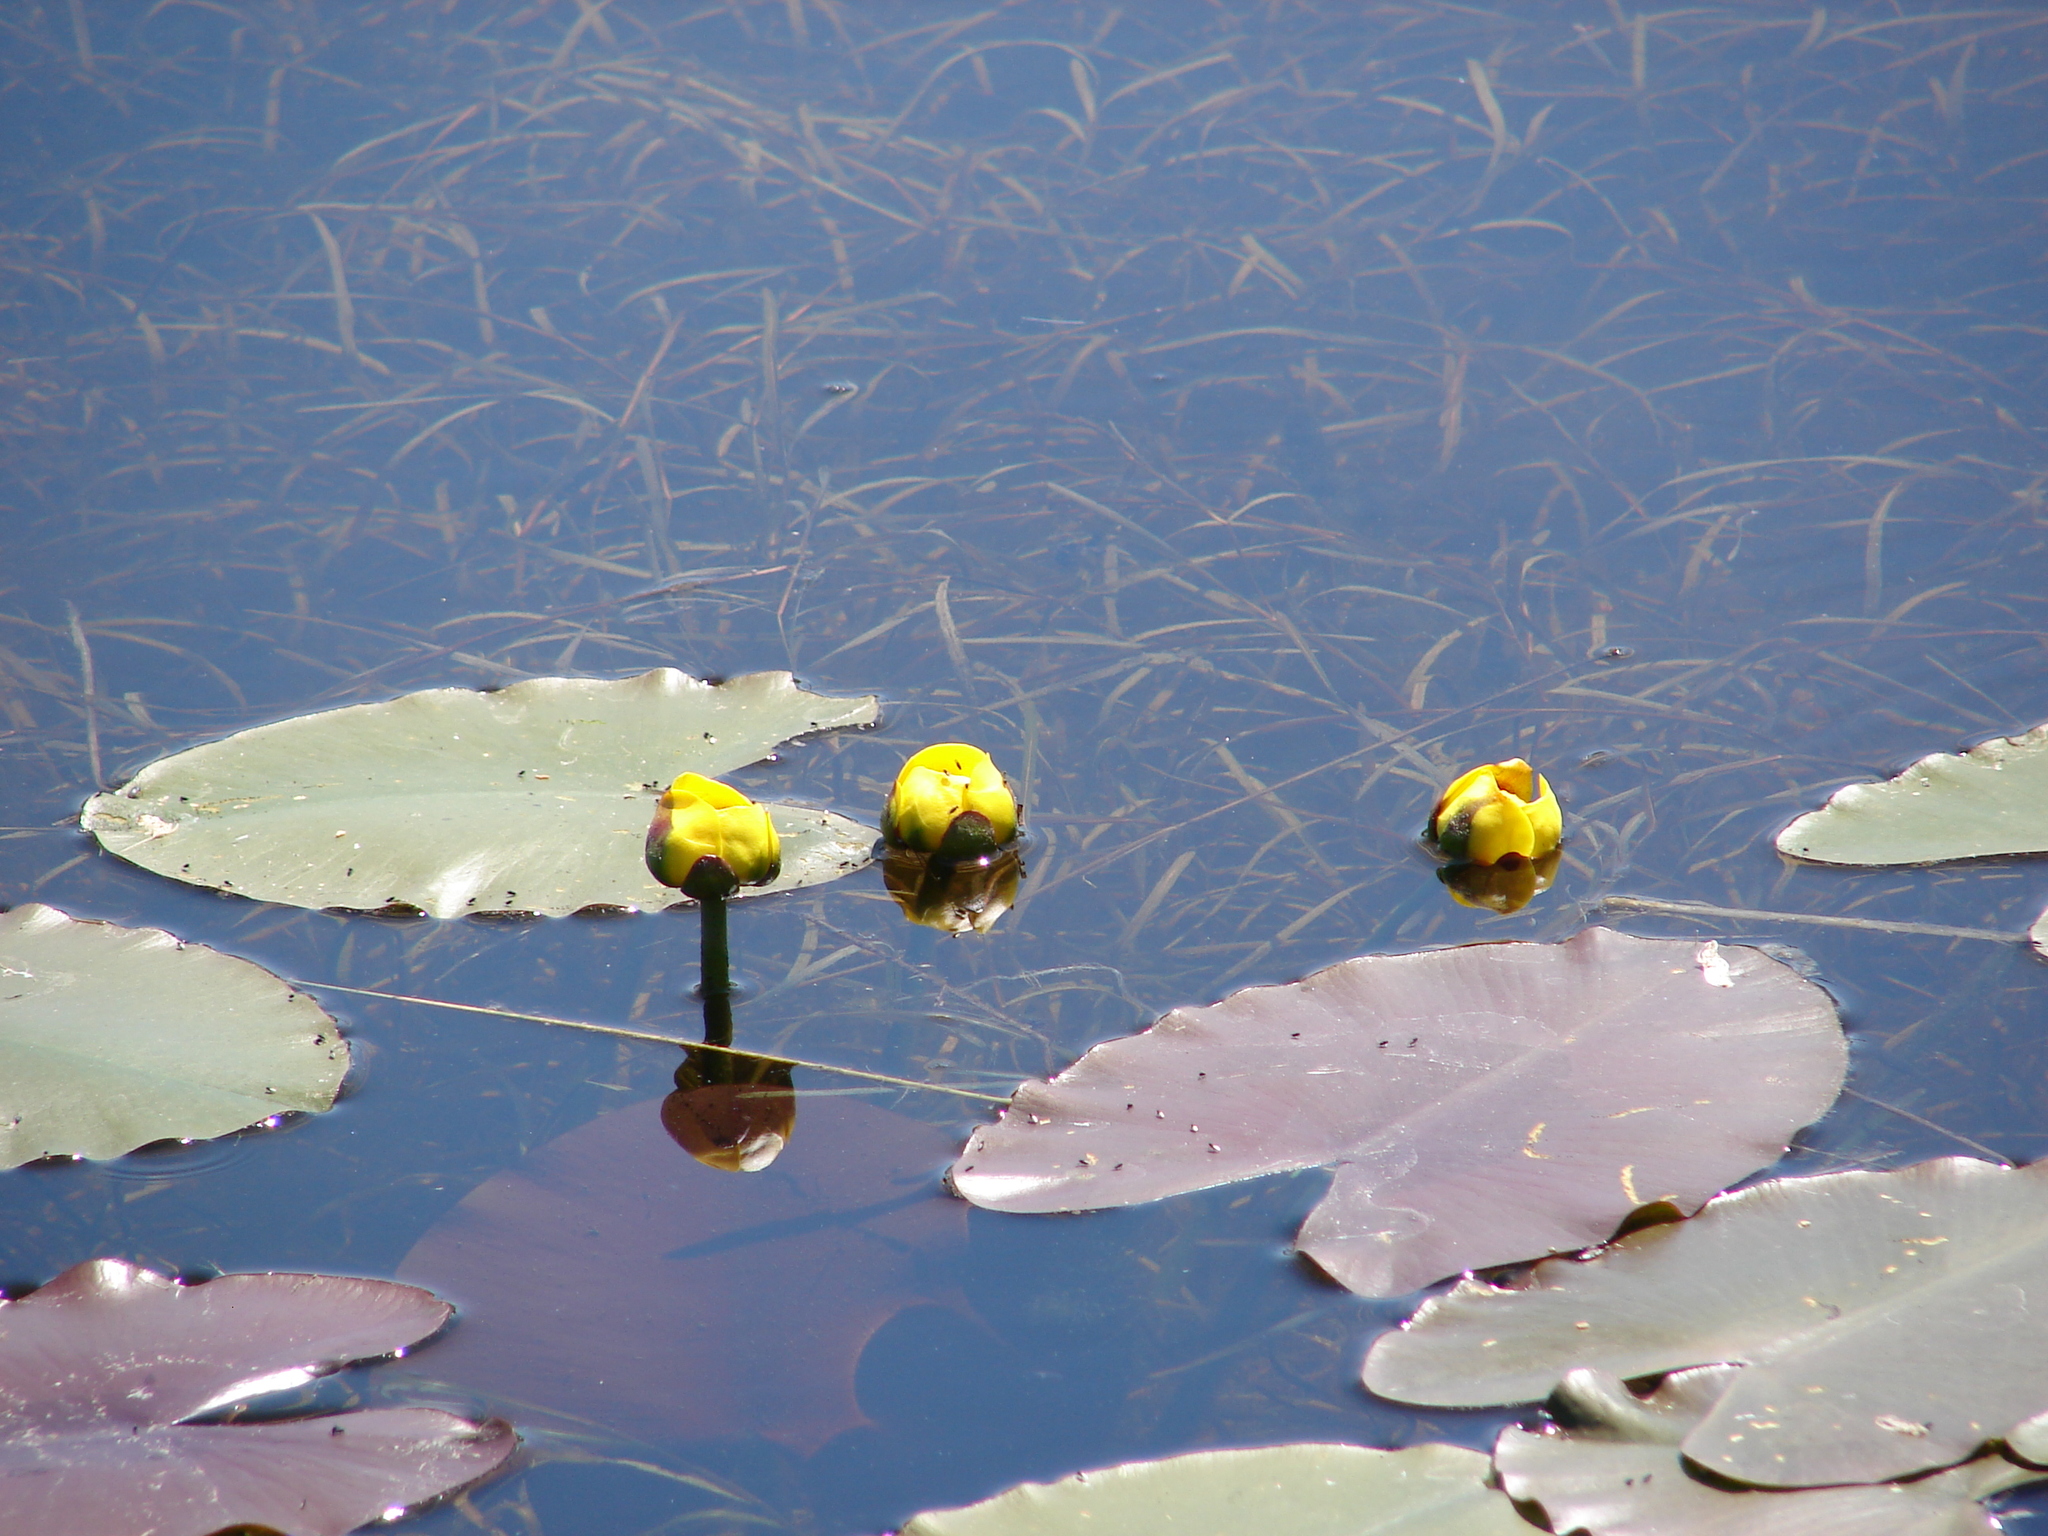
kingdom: Plantae
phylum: Tracheophyta
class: Magnoliopsida
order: Nymphaeales
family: Nymphaeaceae
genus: Nuphar
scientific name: Nuphar variegata
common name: Beaver-root
